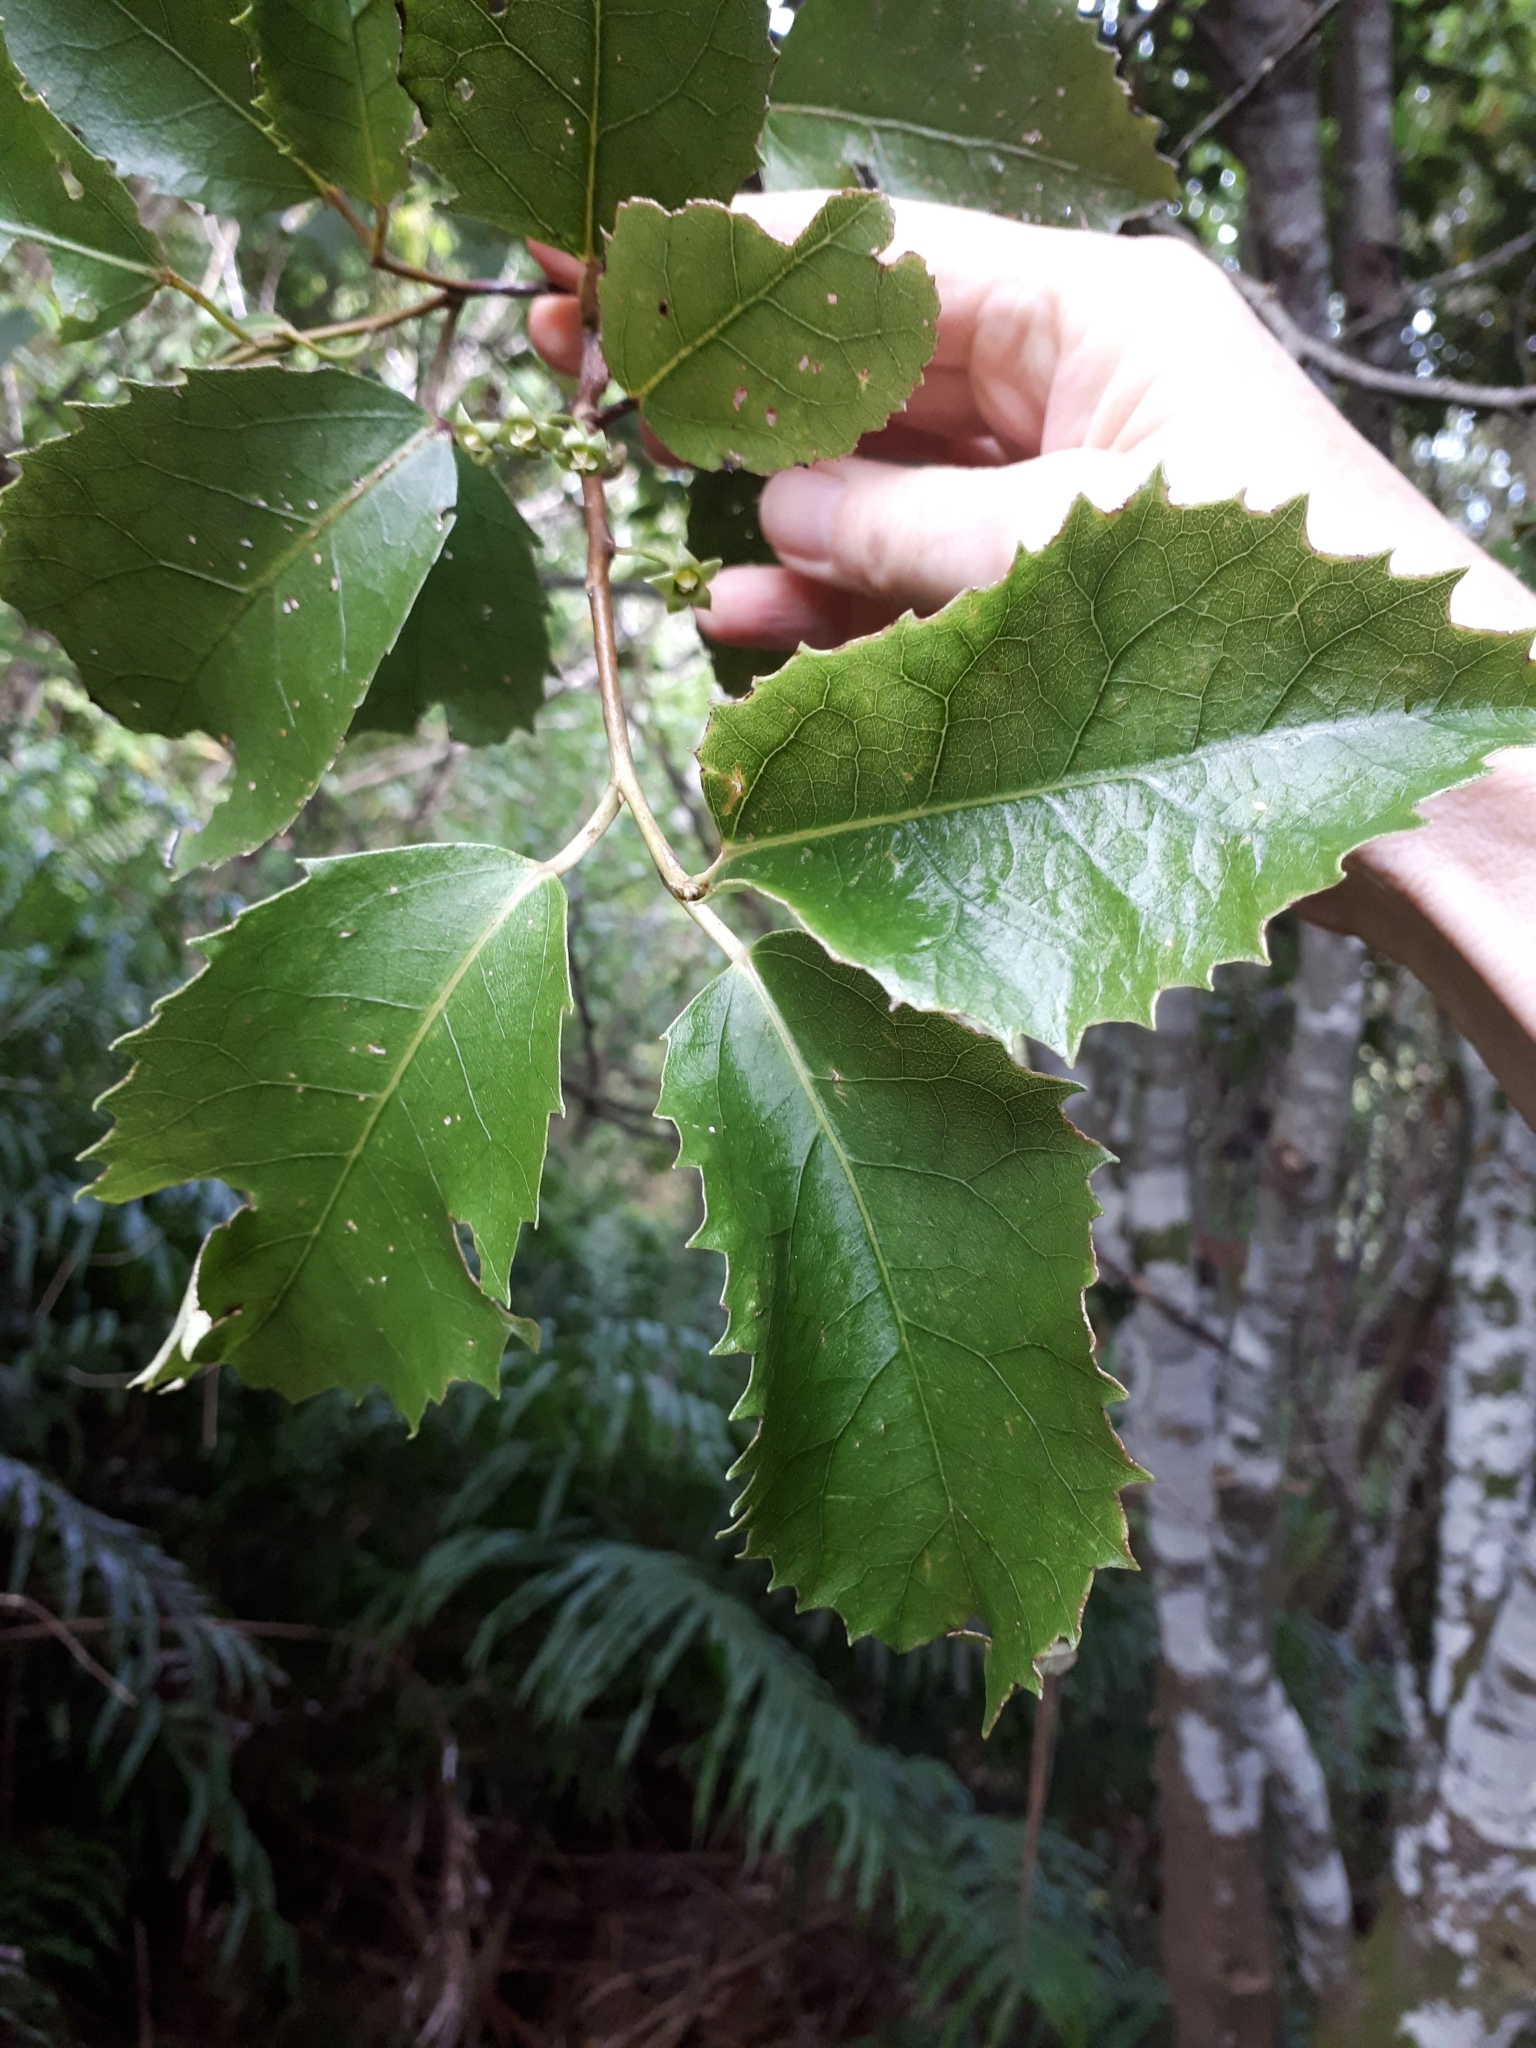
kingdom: Plantae
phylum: Tracheophyta
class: Magnoliopsida
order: Malvales
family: Malvaceae
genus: Hoheria
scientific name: Hoheria populnea
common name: Lacebark
